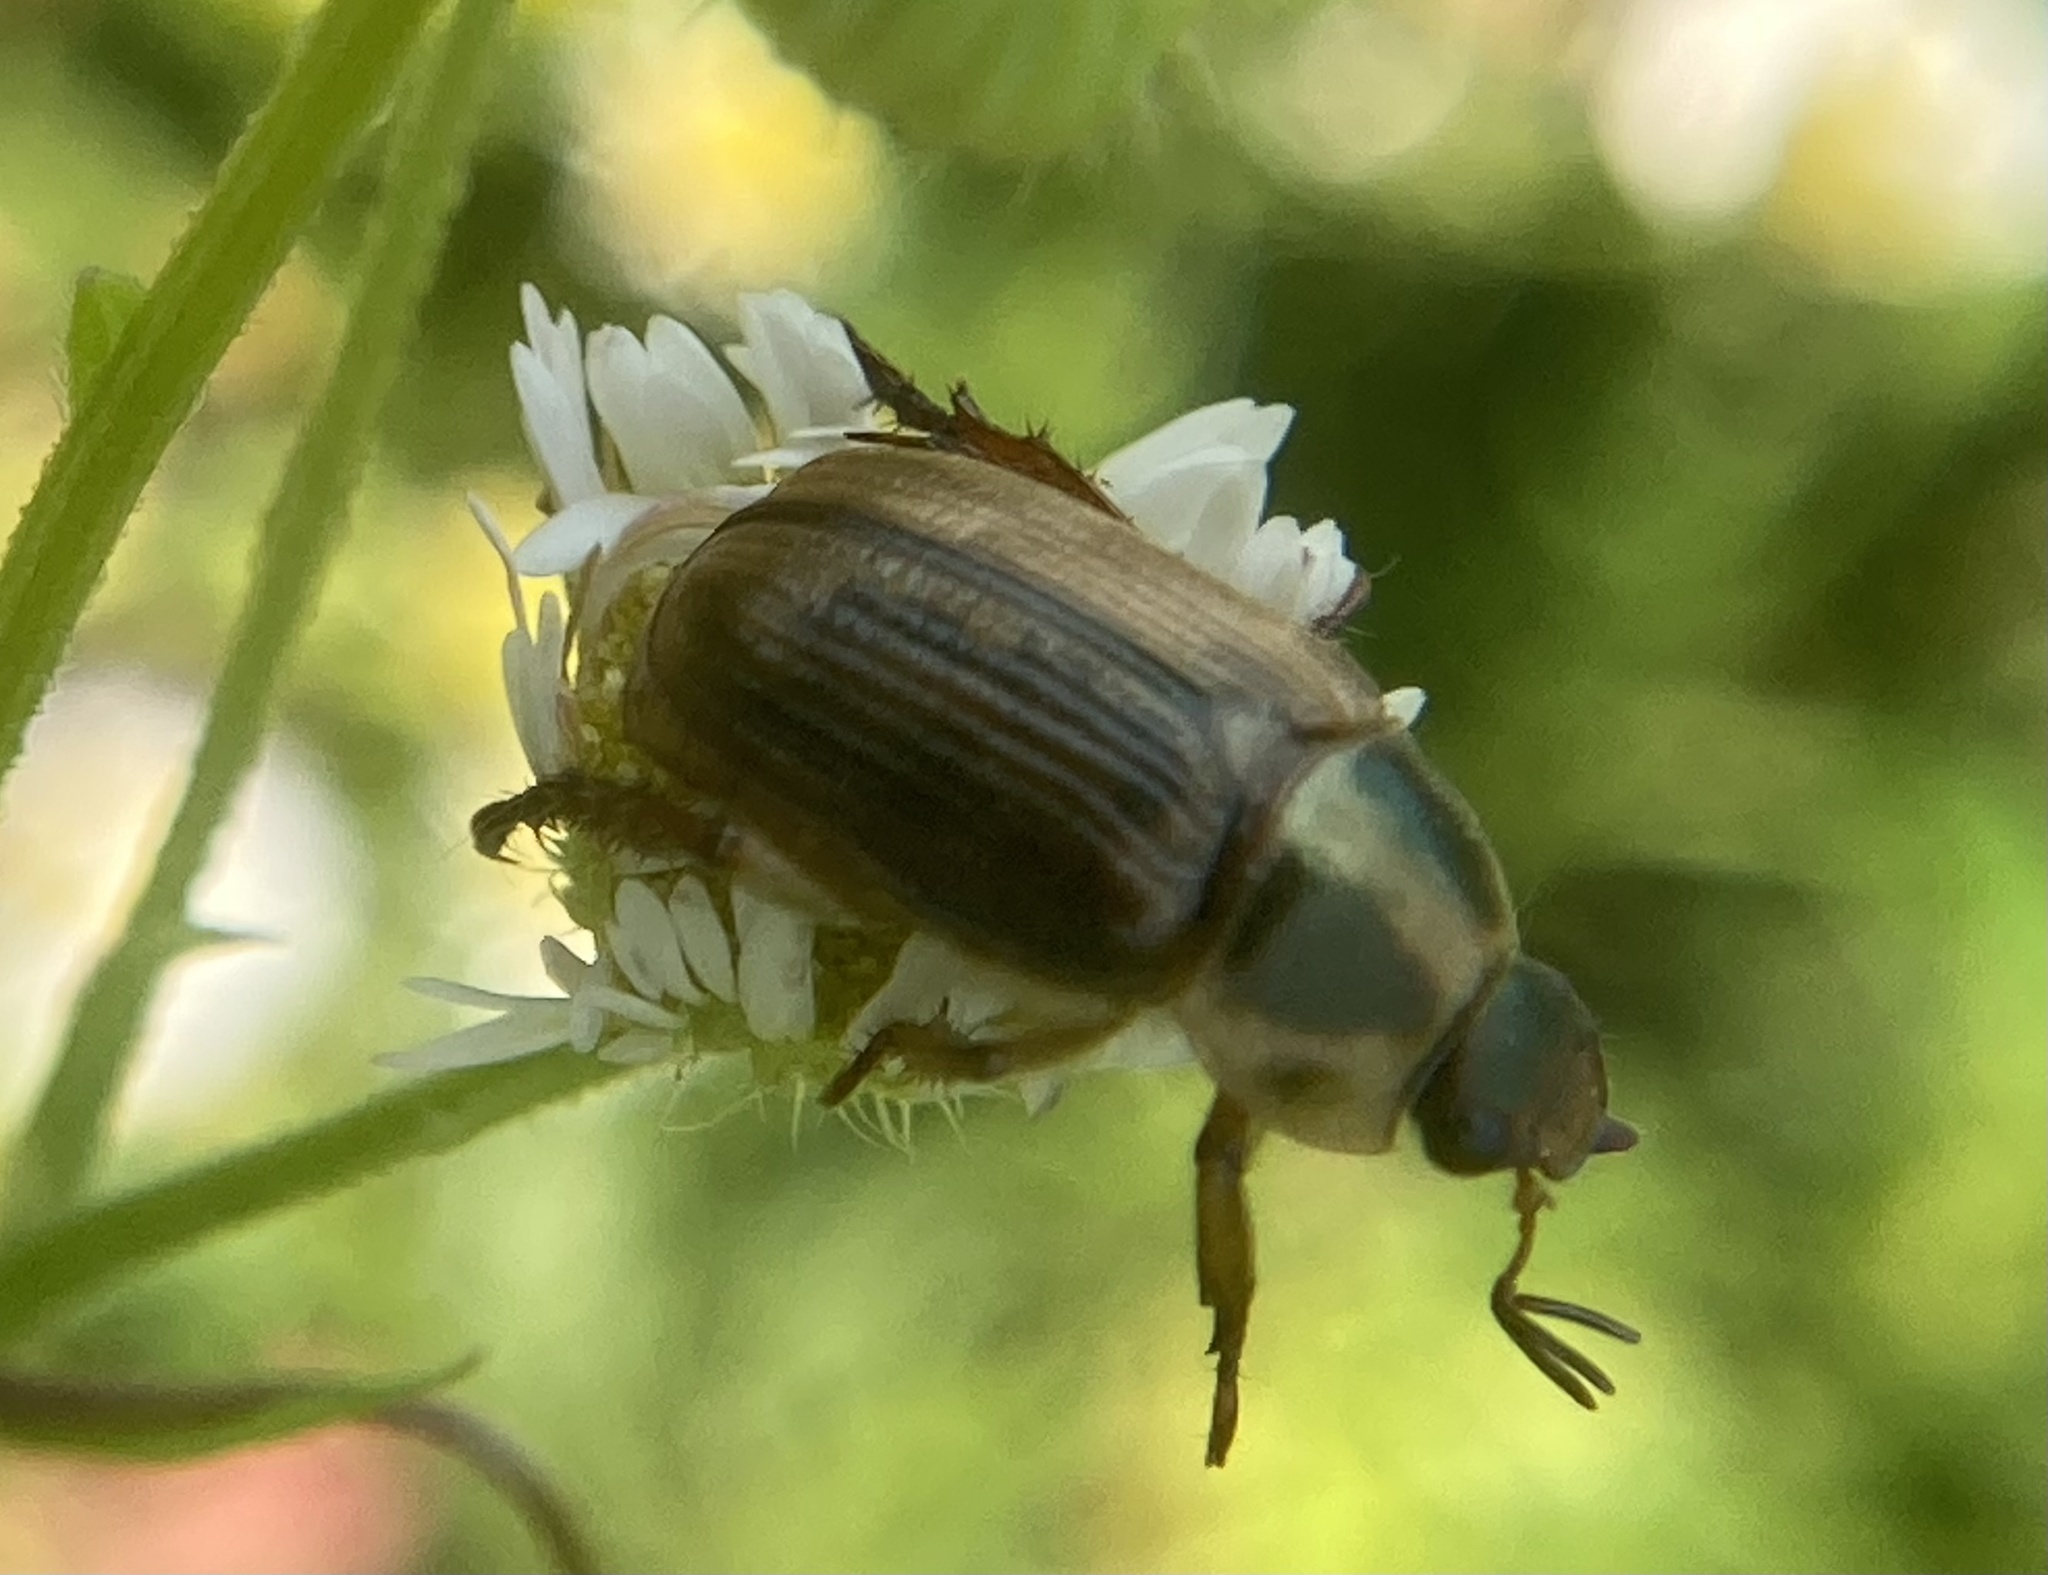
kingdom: Animalia
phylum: Arthropoda
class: Insecta
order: Coleoptera
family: Scarabaeidae
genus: Exomala
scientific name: Exomala orientalis
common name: Oriental beetle
